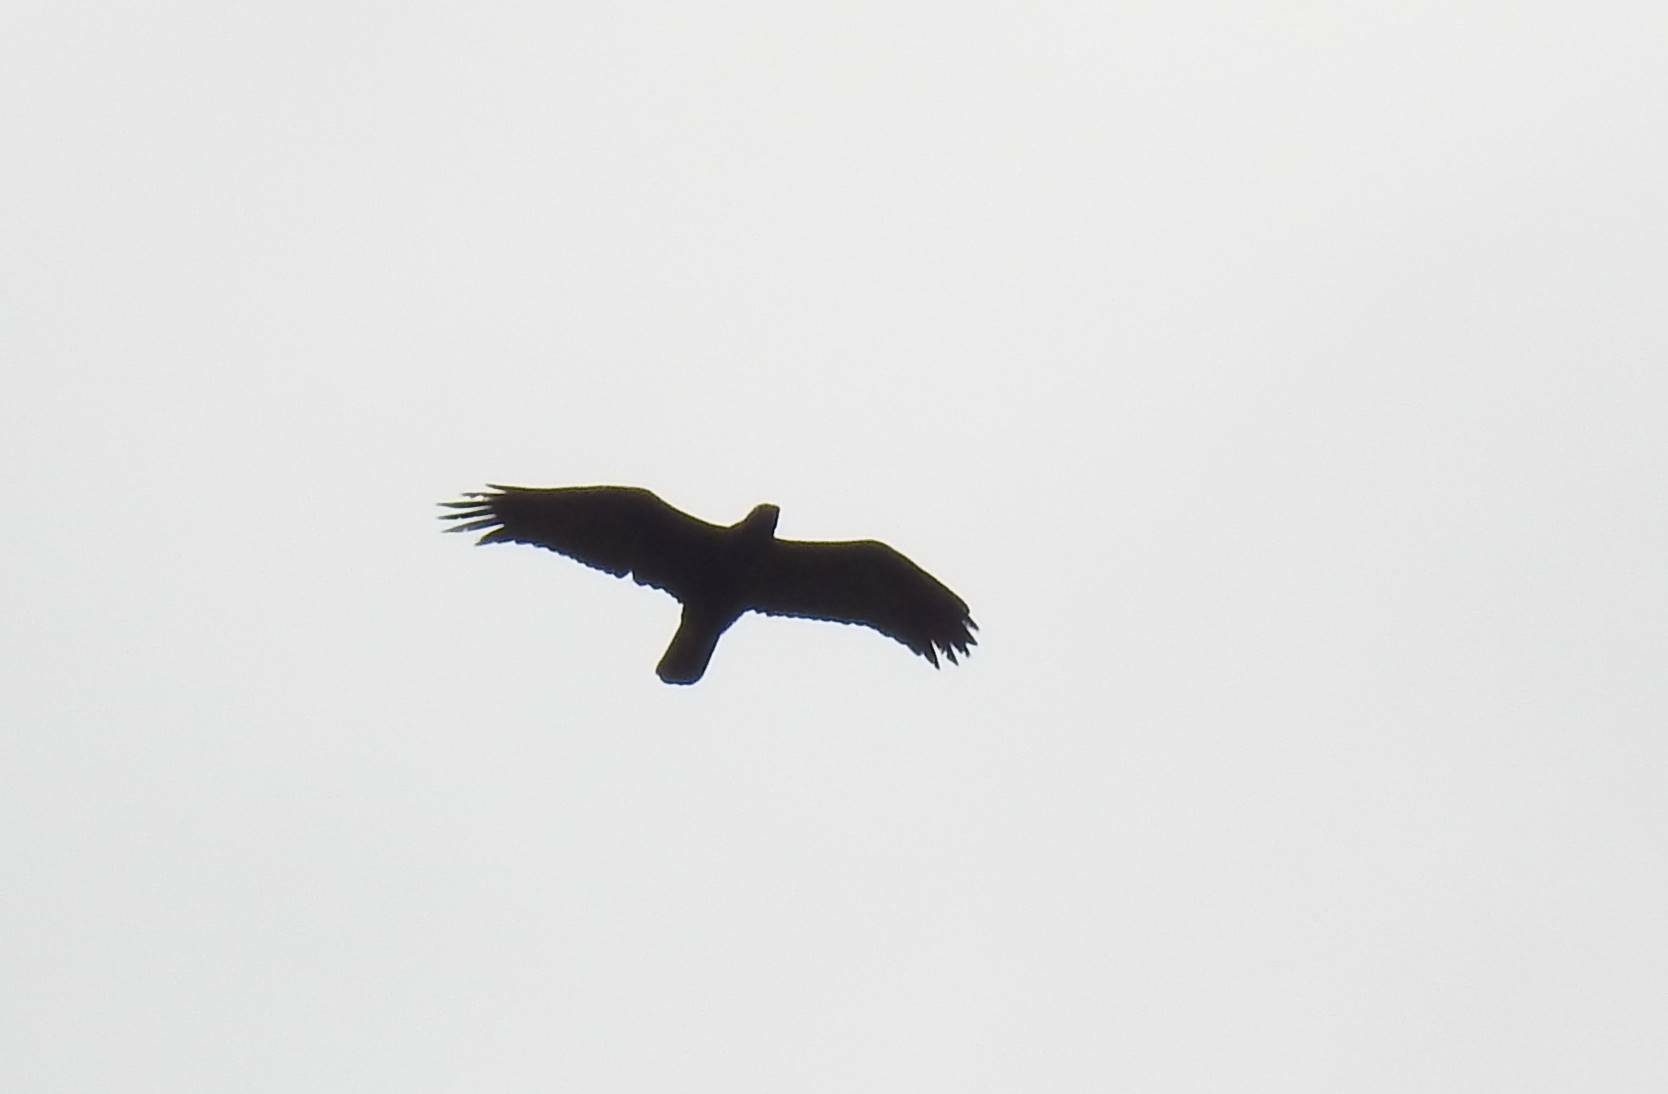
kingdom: Animalia
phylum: Chordata
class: Aves
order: Accipitriformes
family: Accipitridae
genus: Aquila
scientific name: Aquila chrysaetos
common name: Golden eagle
